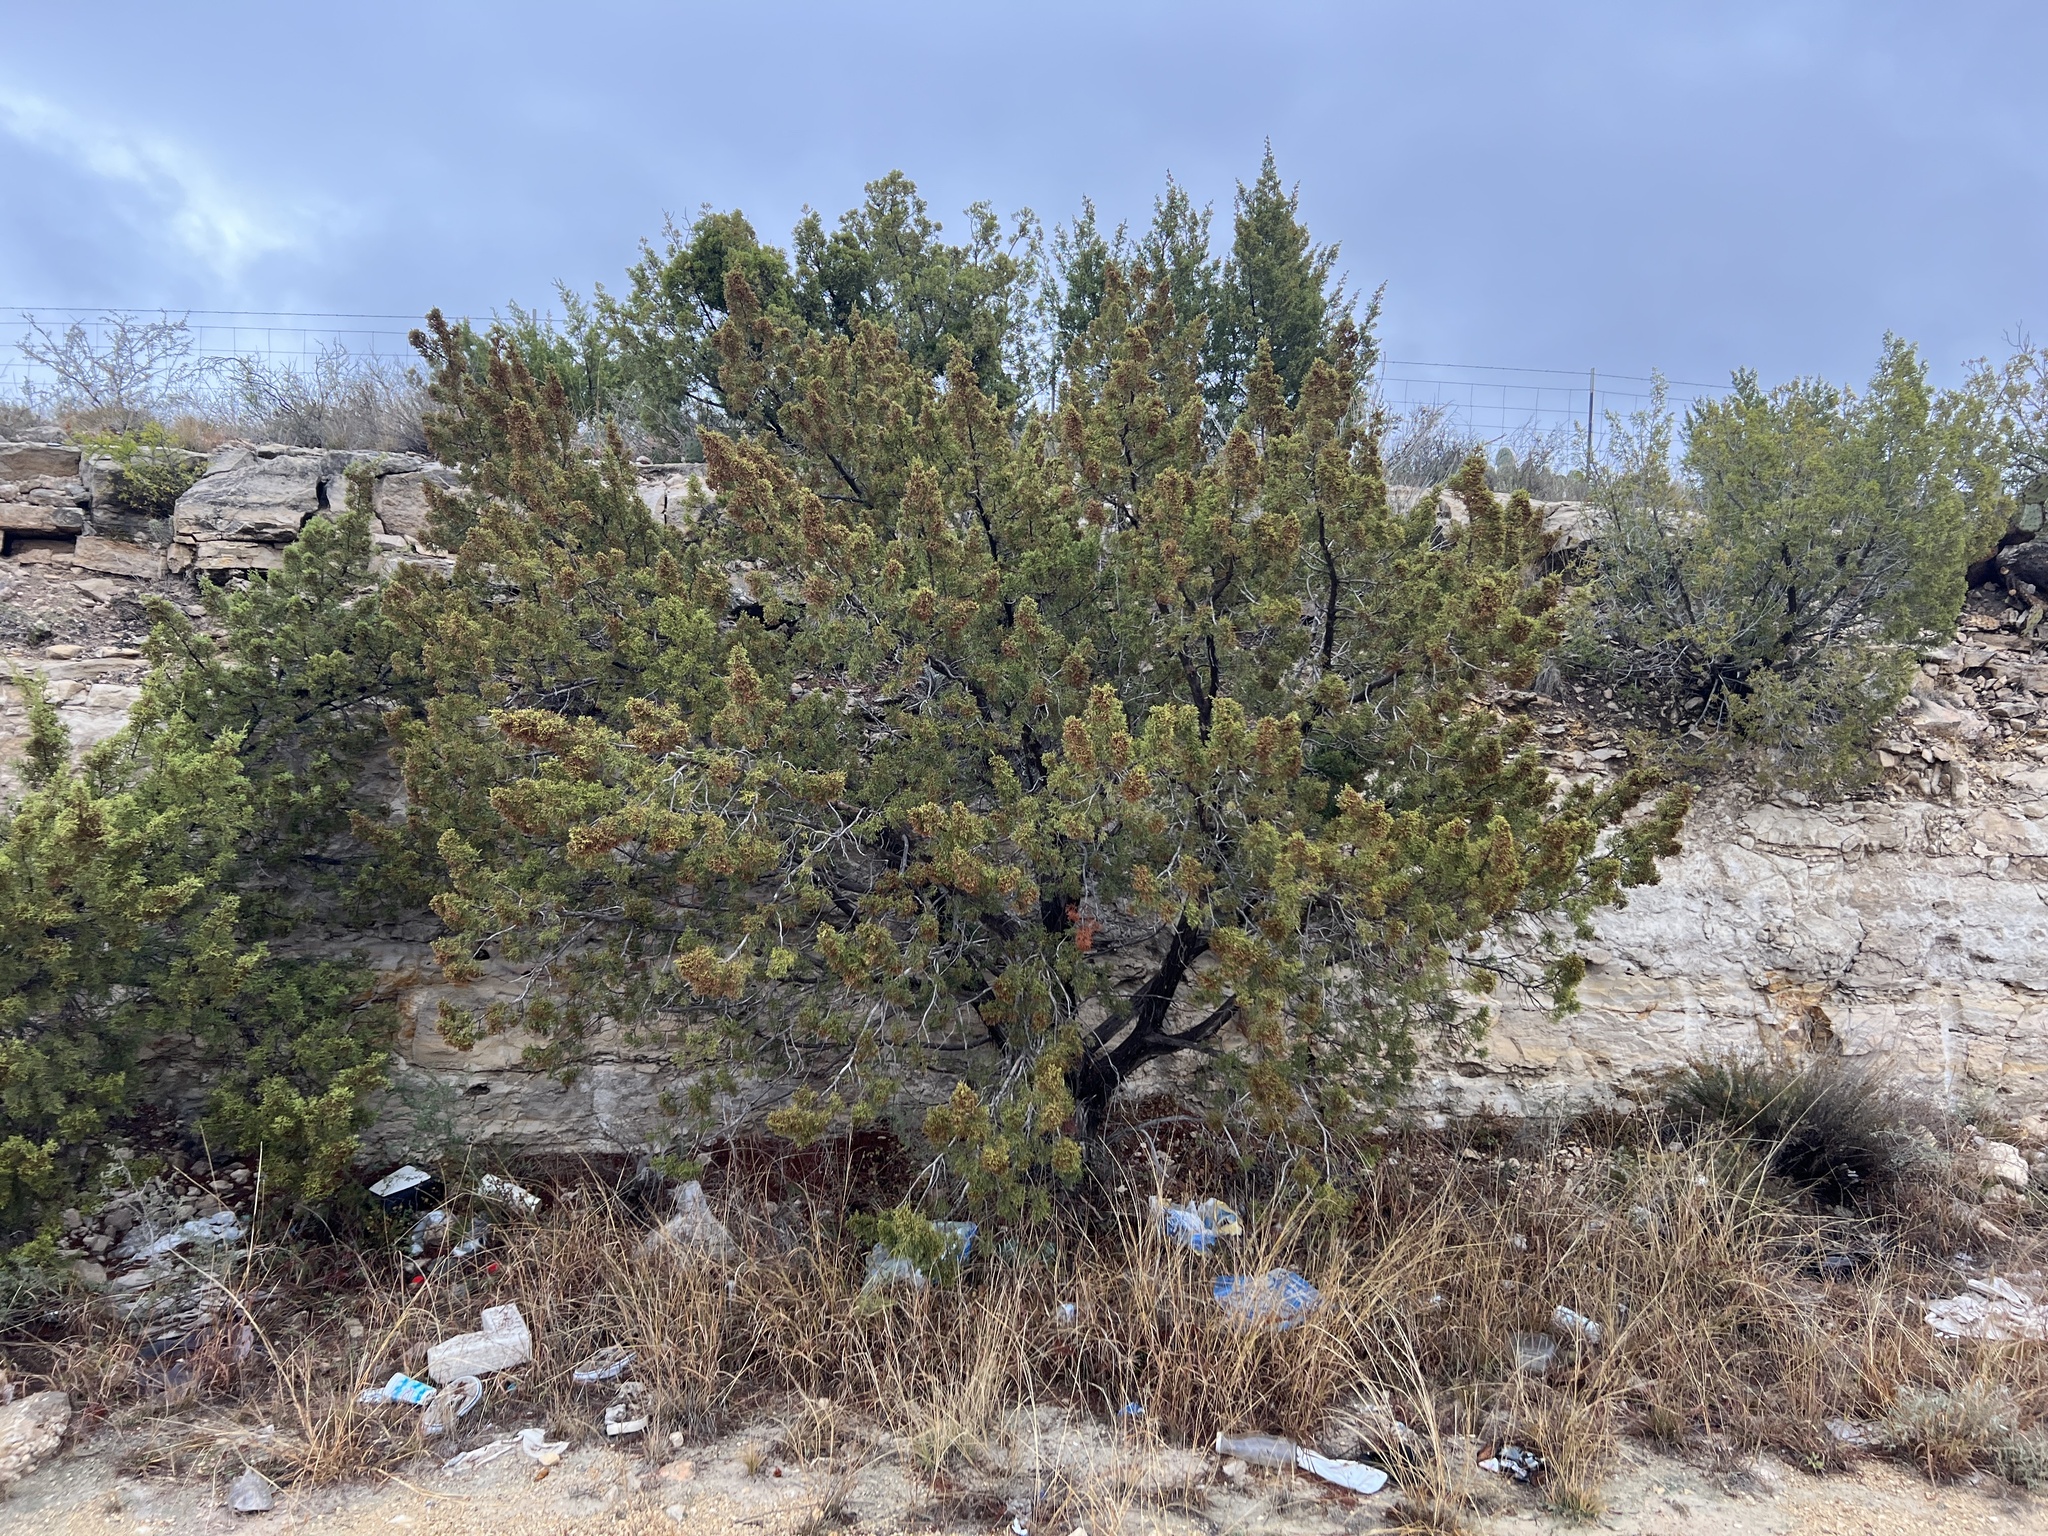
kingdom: Plantae
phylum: Tracheophyta
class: Pinopsida
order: Pinales
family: Cupressaceae
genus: Juniperus
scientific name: Juniperus pinchotii
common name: Pinchot juniper
